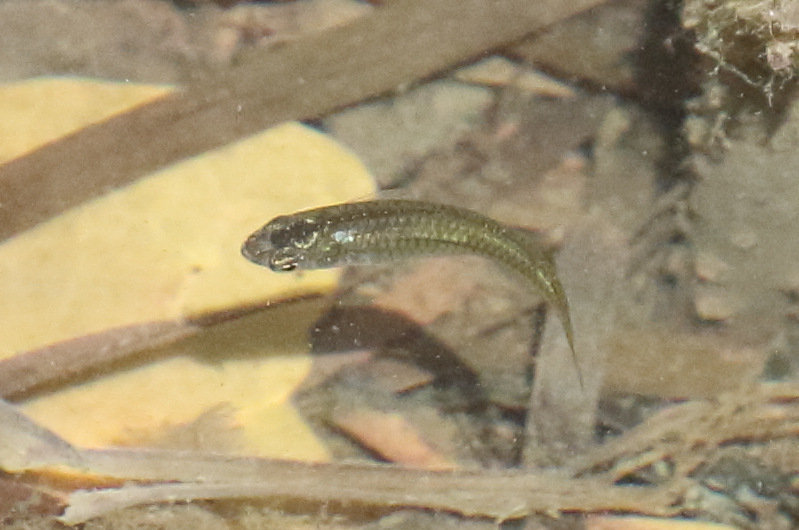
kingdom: Animalia
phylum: Chordata
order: Cyprinodontiformes
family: Poeciliidae
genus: Gambusia
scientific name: Gambusia holbrooki
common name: Eastern mosquitofish
